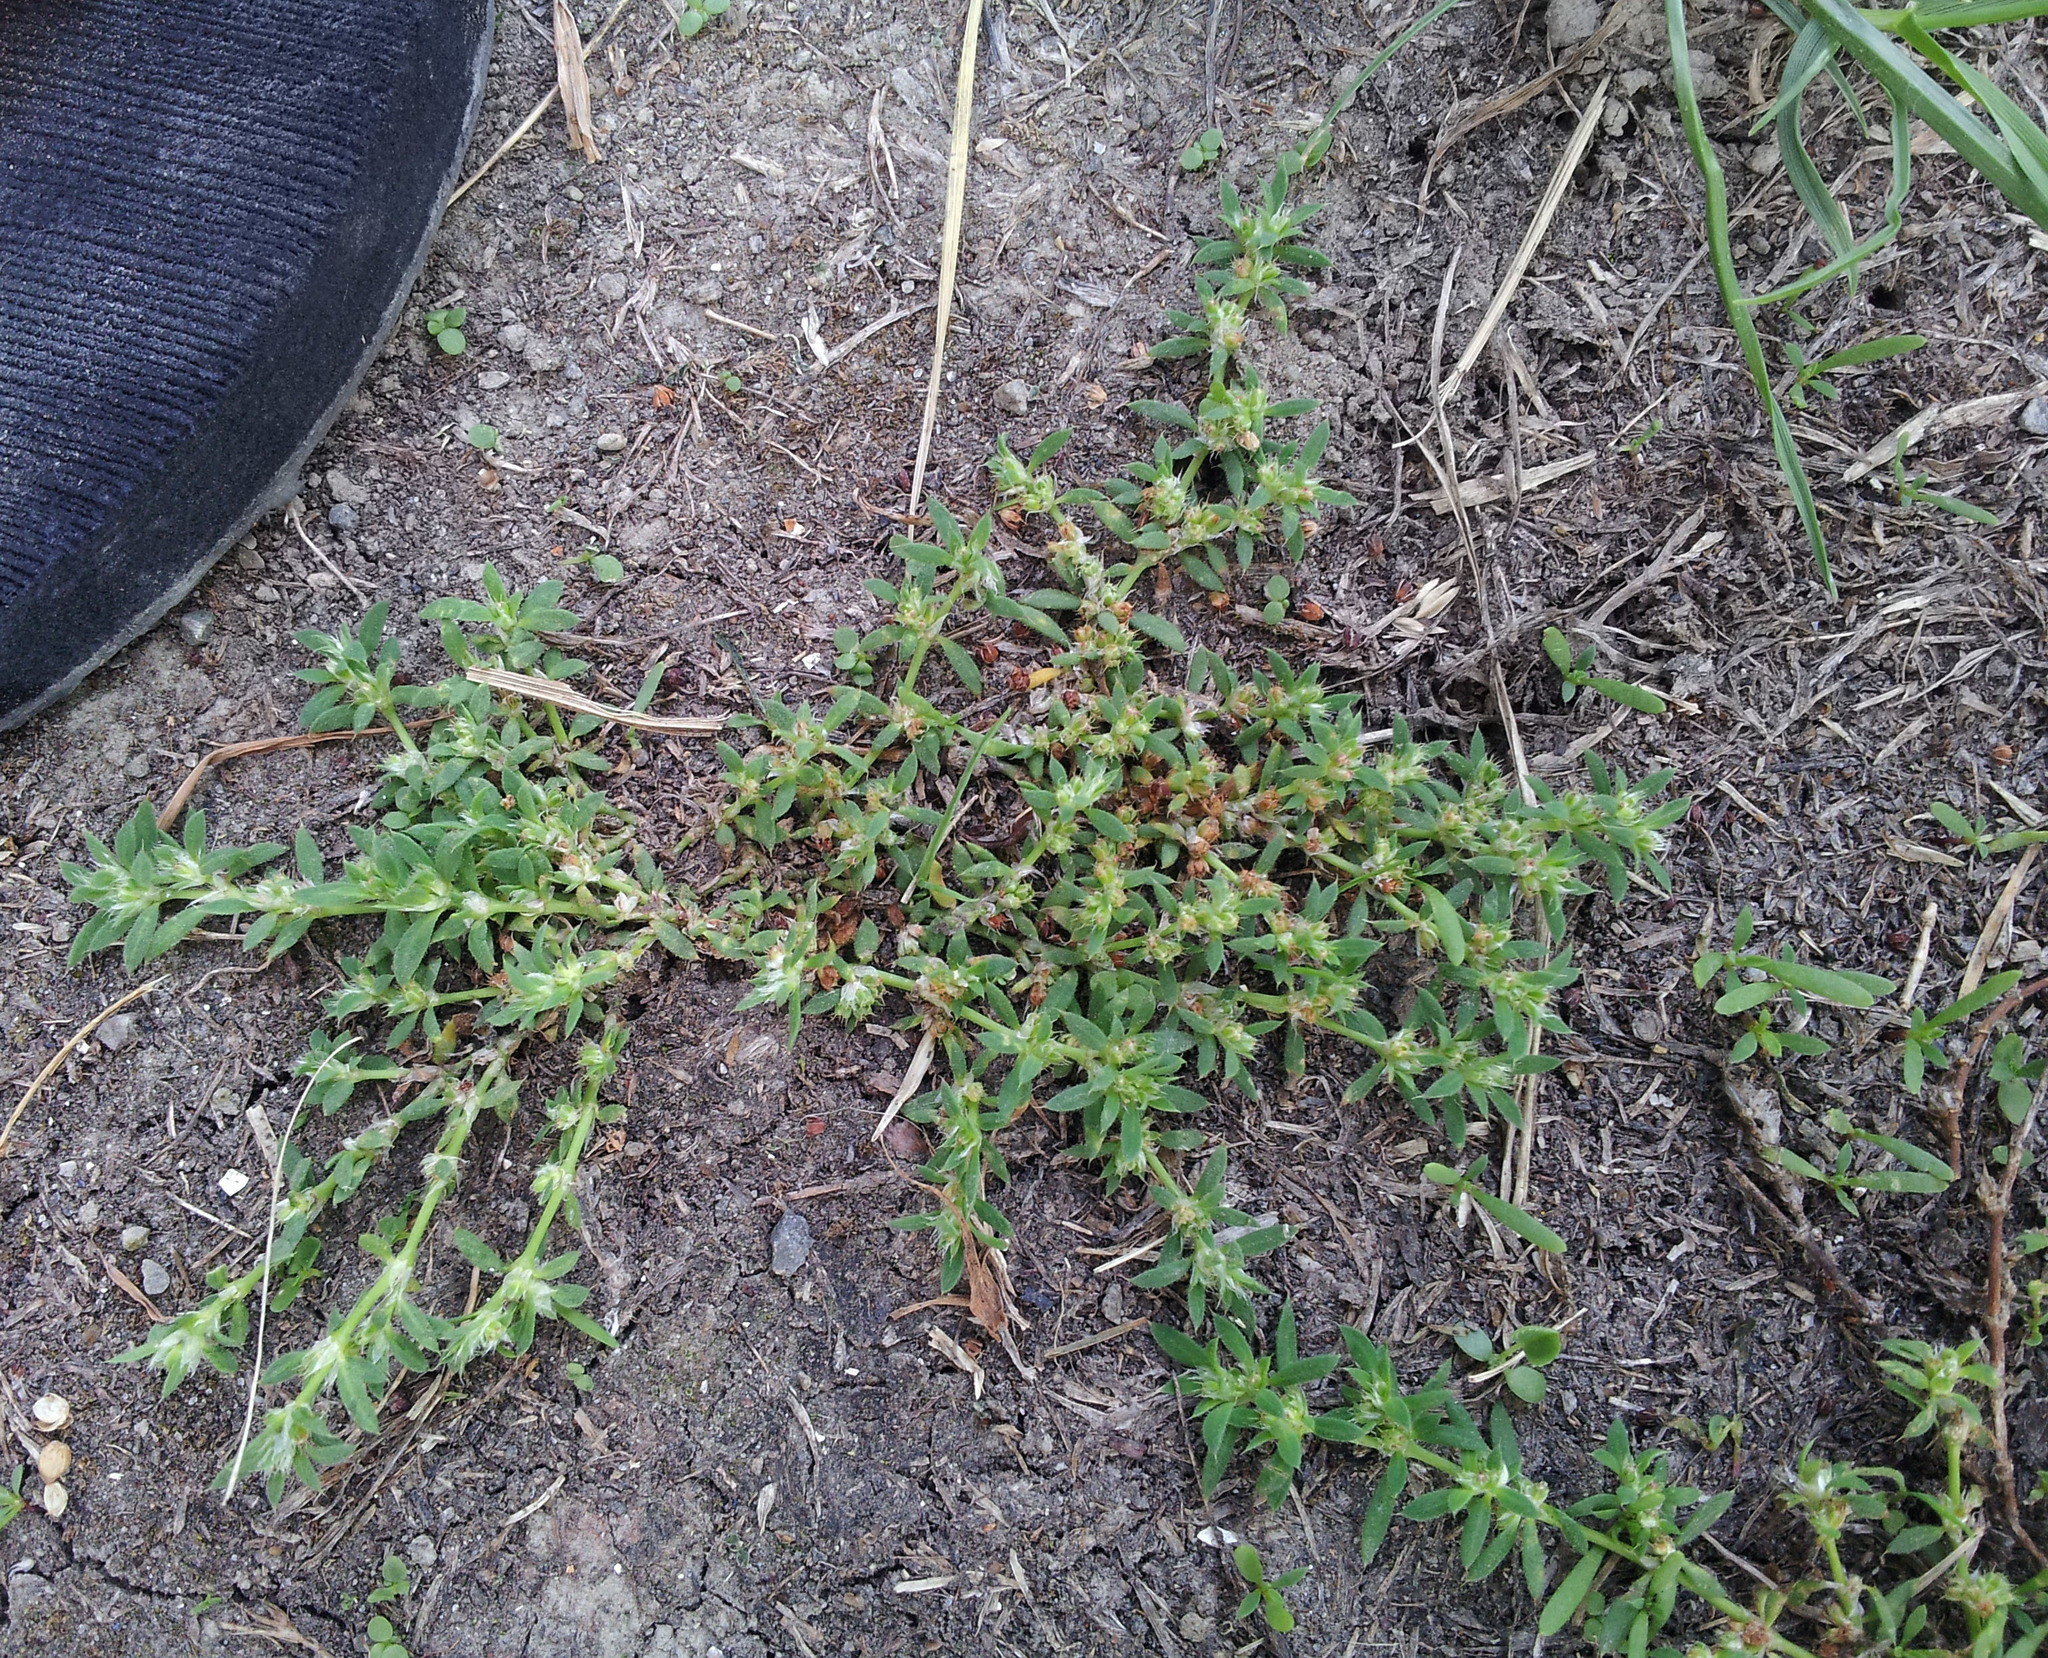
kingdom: Plantae
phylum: Tracheophyta
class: Magnoliopsida
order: Caryophyllales
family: Caryophyllaceae
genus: Paronychia
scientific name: Paronychia brasiliana
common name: Brazilian whitlow
